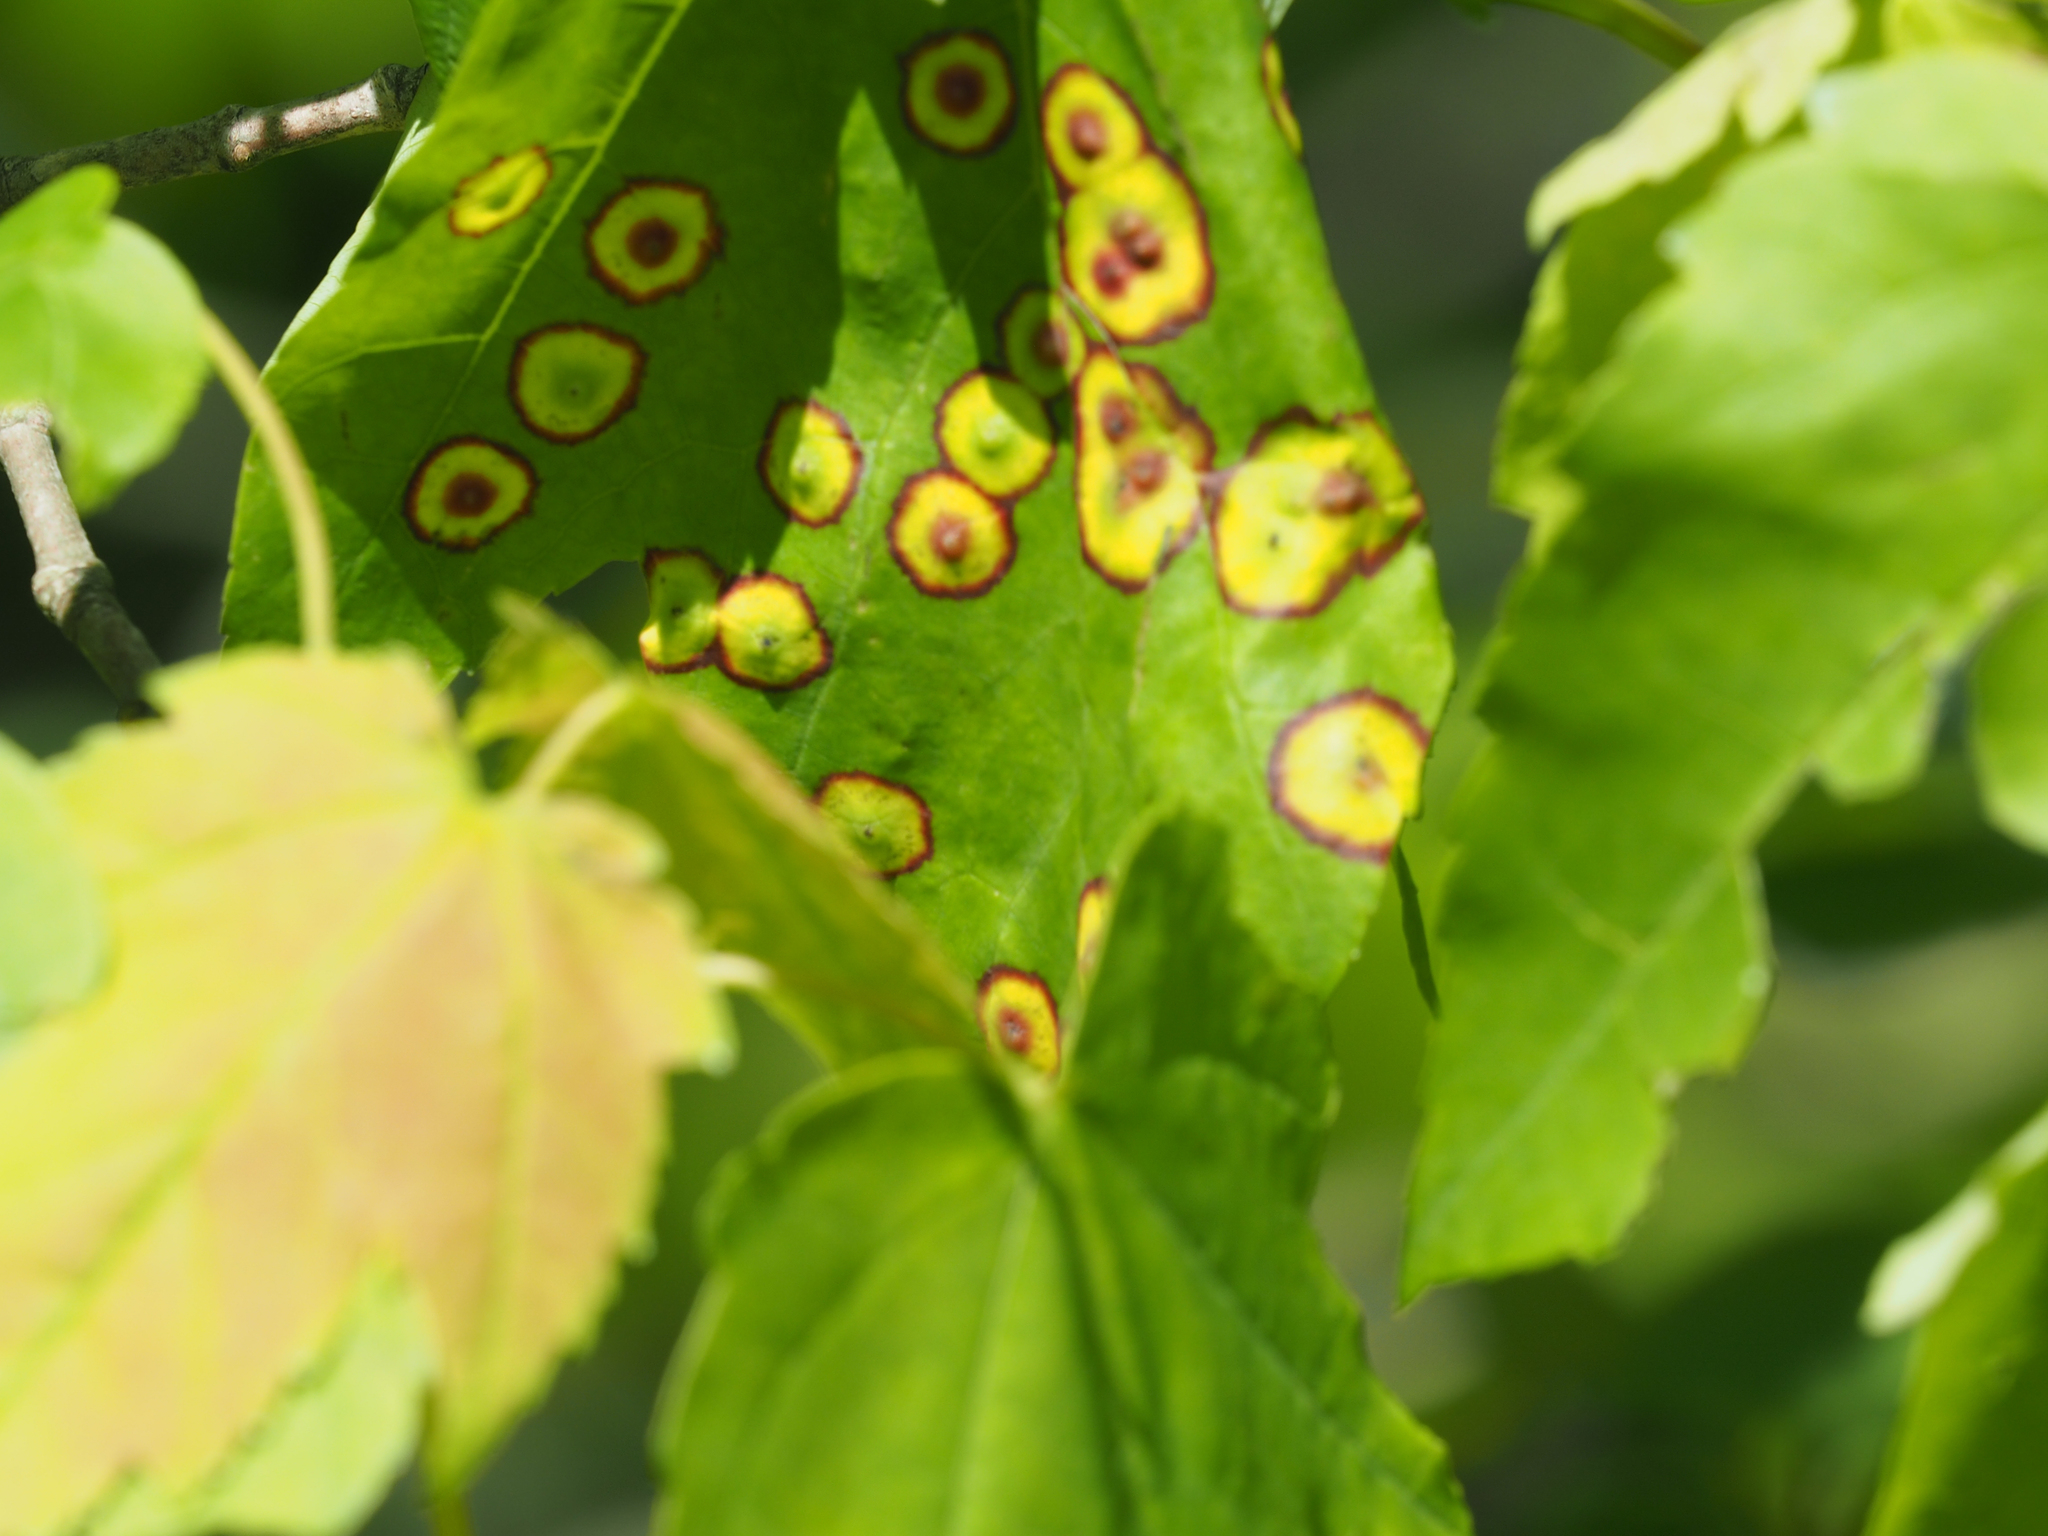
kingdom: Animalia
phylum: Arthropoda
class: Insecta
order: Diptera
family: Cecidomyiidae
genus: Acericecis
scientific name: Acericecis ocellaris
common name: Ocellate gall midge
